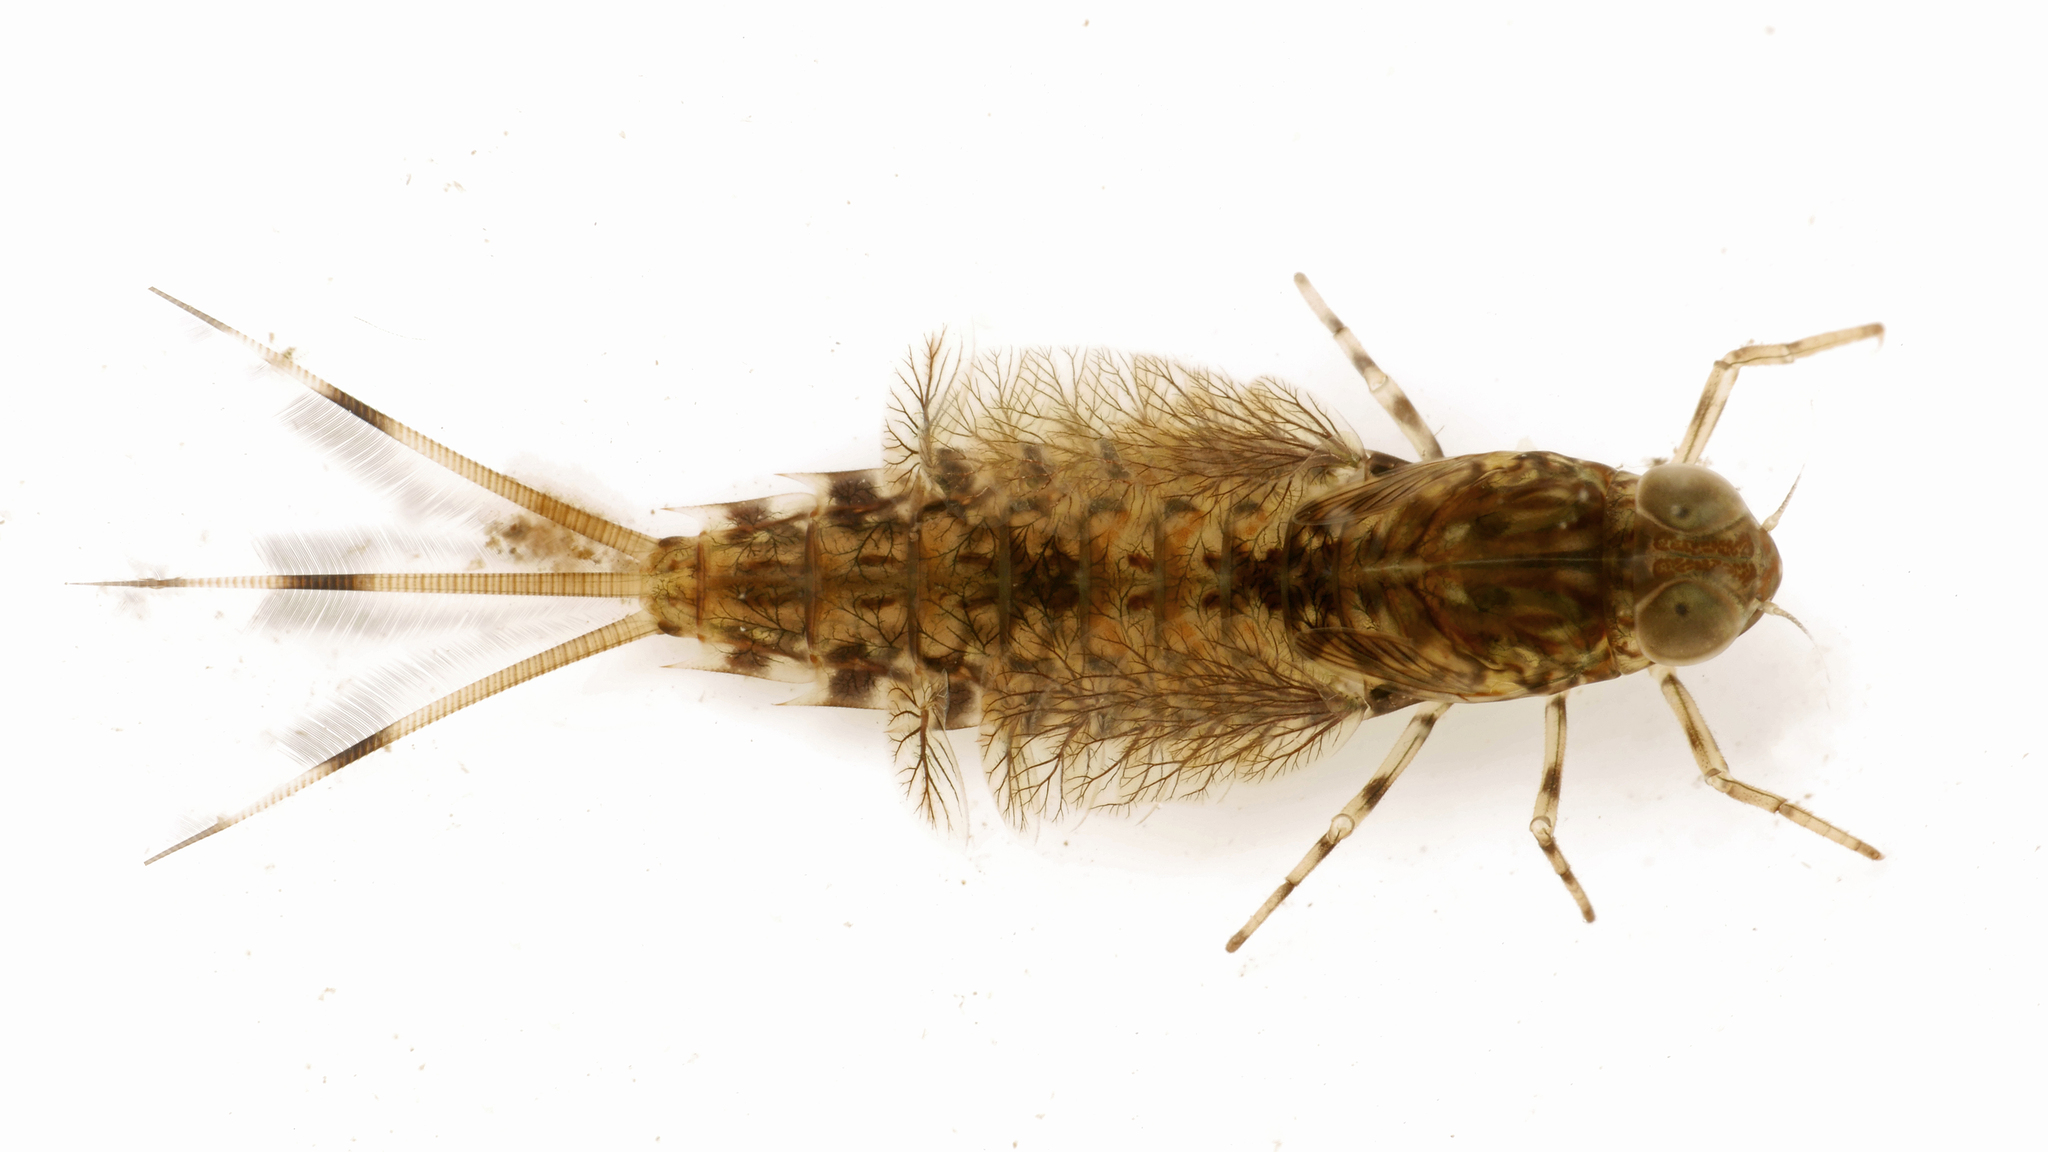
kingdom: Animalia
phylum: Arthropoda
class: Insecta
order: Ephemeroptera
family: Siphlonuridae
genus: Siphlonurus
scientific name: Siphlonurus alternatus
